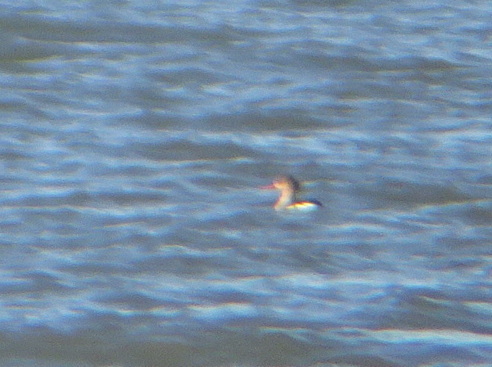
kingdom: Animalia
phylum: Chordata
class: Aves
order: Anseriformes
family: Anatidae
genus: Mergus
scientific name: Mergus serrator
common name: Red-breasted merganser
